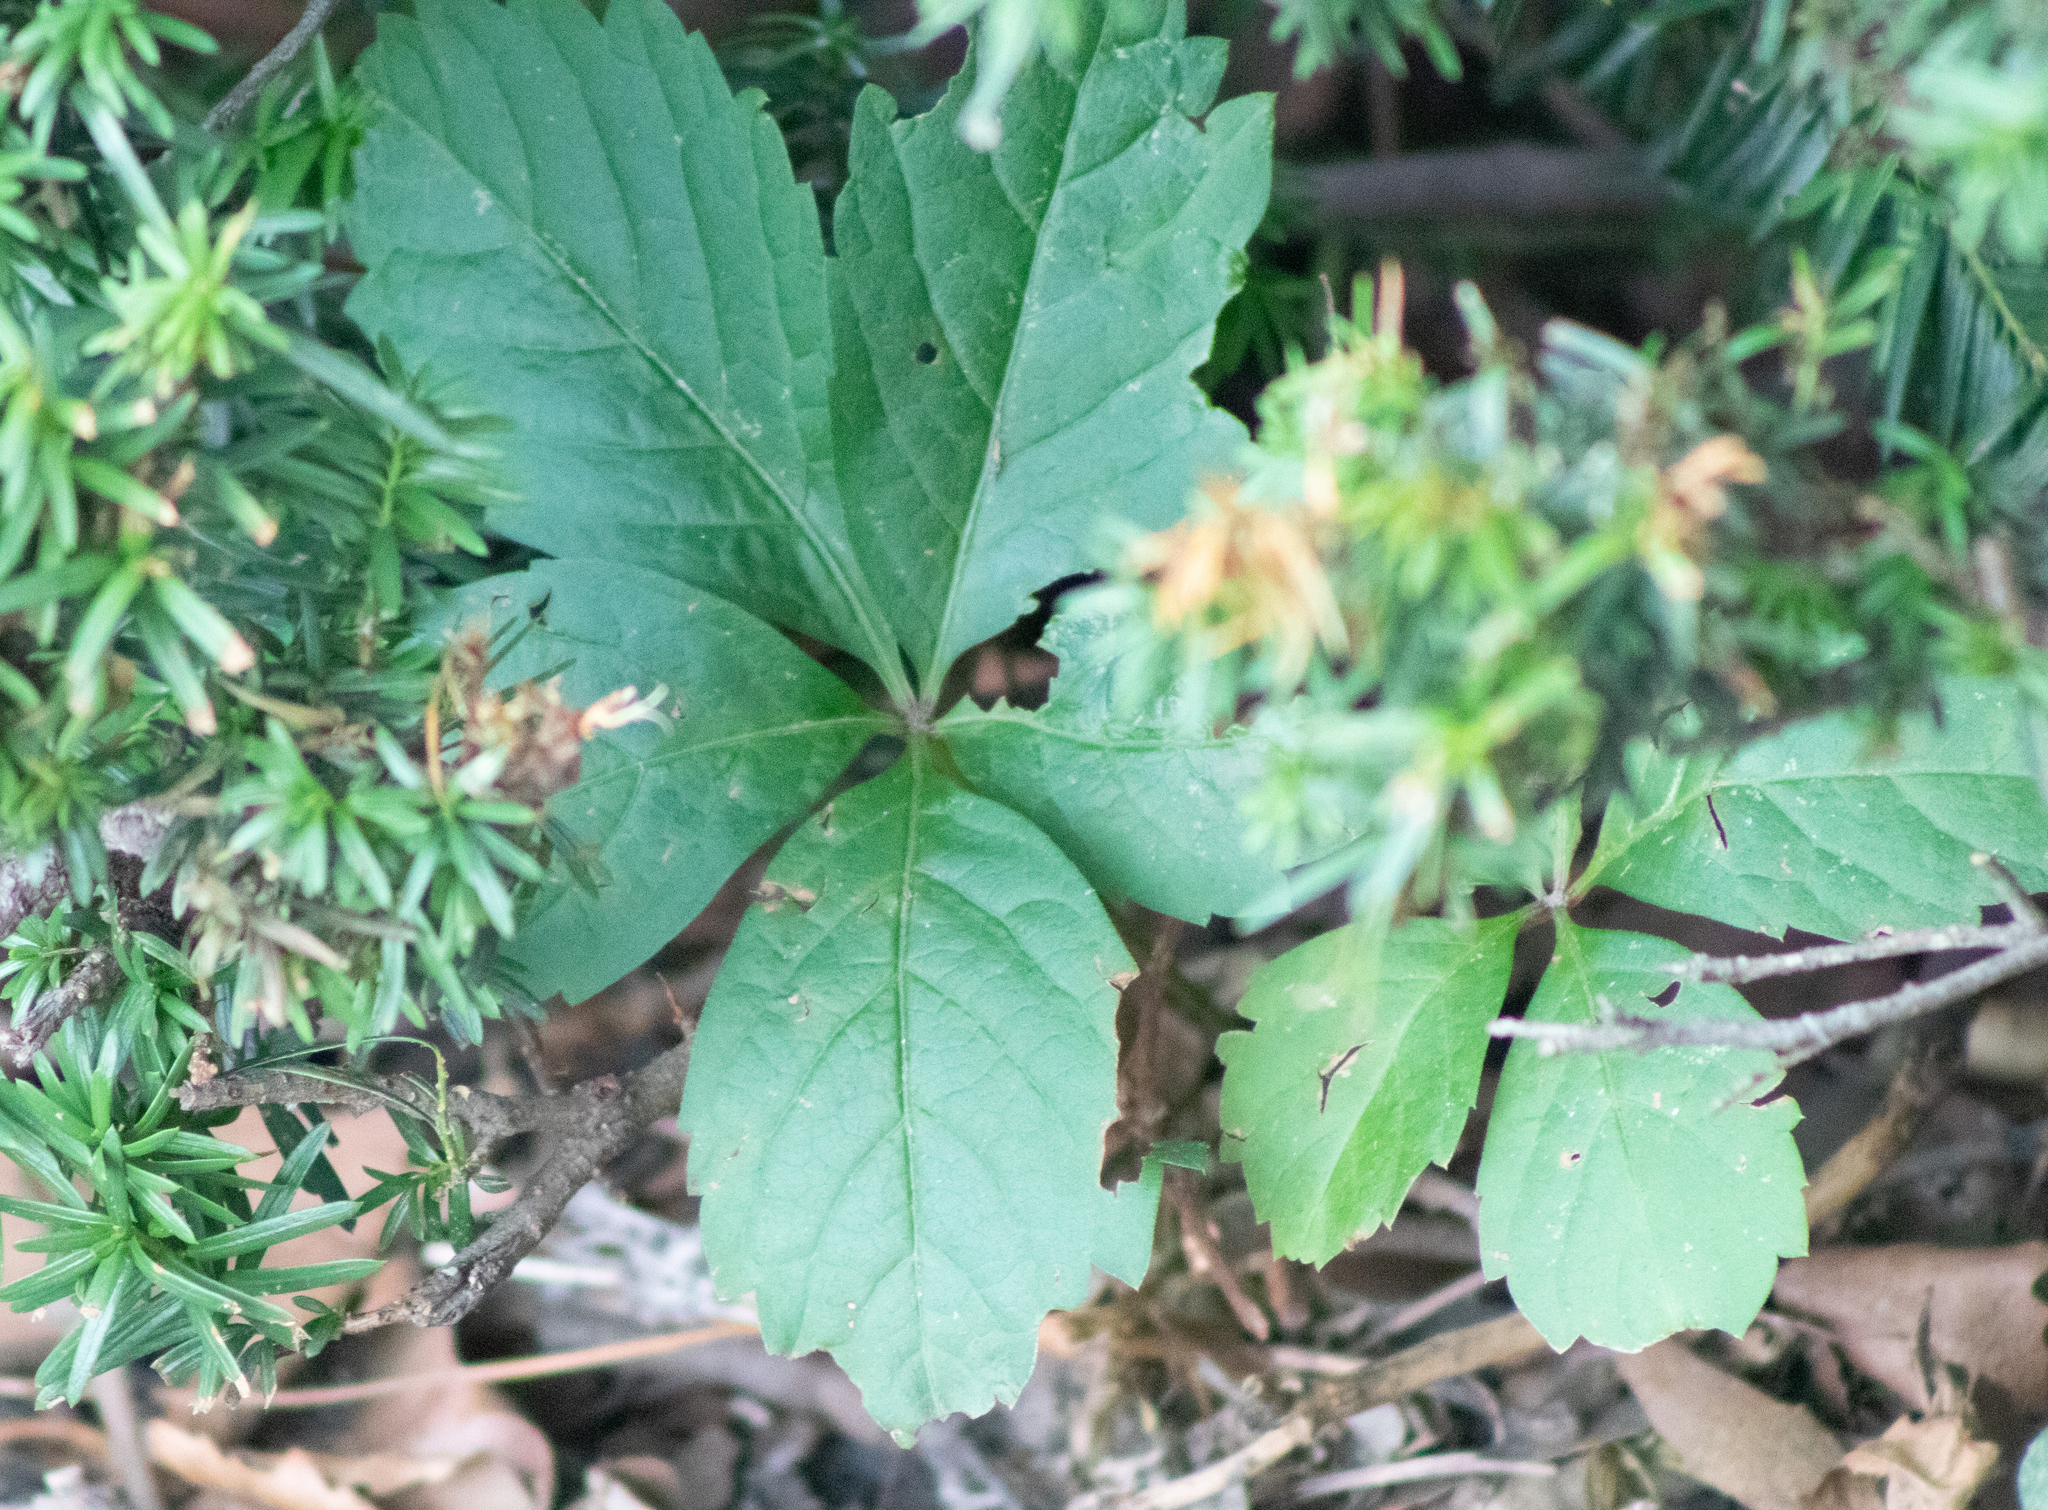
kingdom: Plantae
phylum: Tracheophyta
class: Magnoliopsida
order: Vitales
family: Vitaceae
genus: Parthenocissus
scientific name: Parthenocissus quinquefolia
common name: Virginia-creeper
